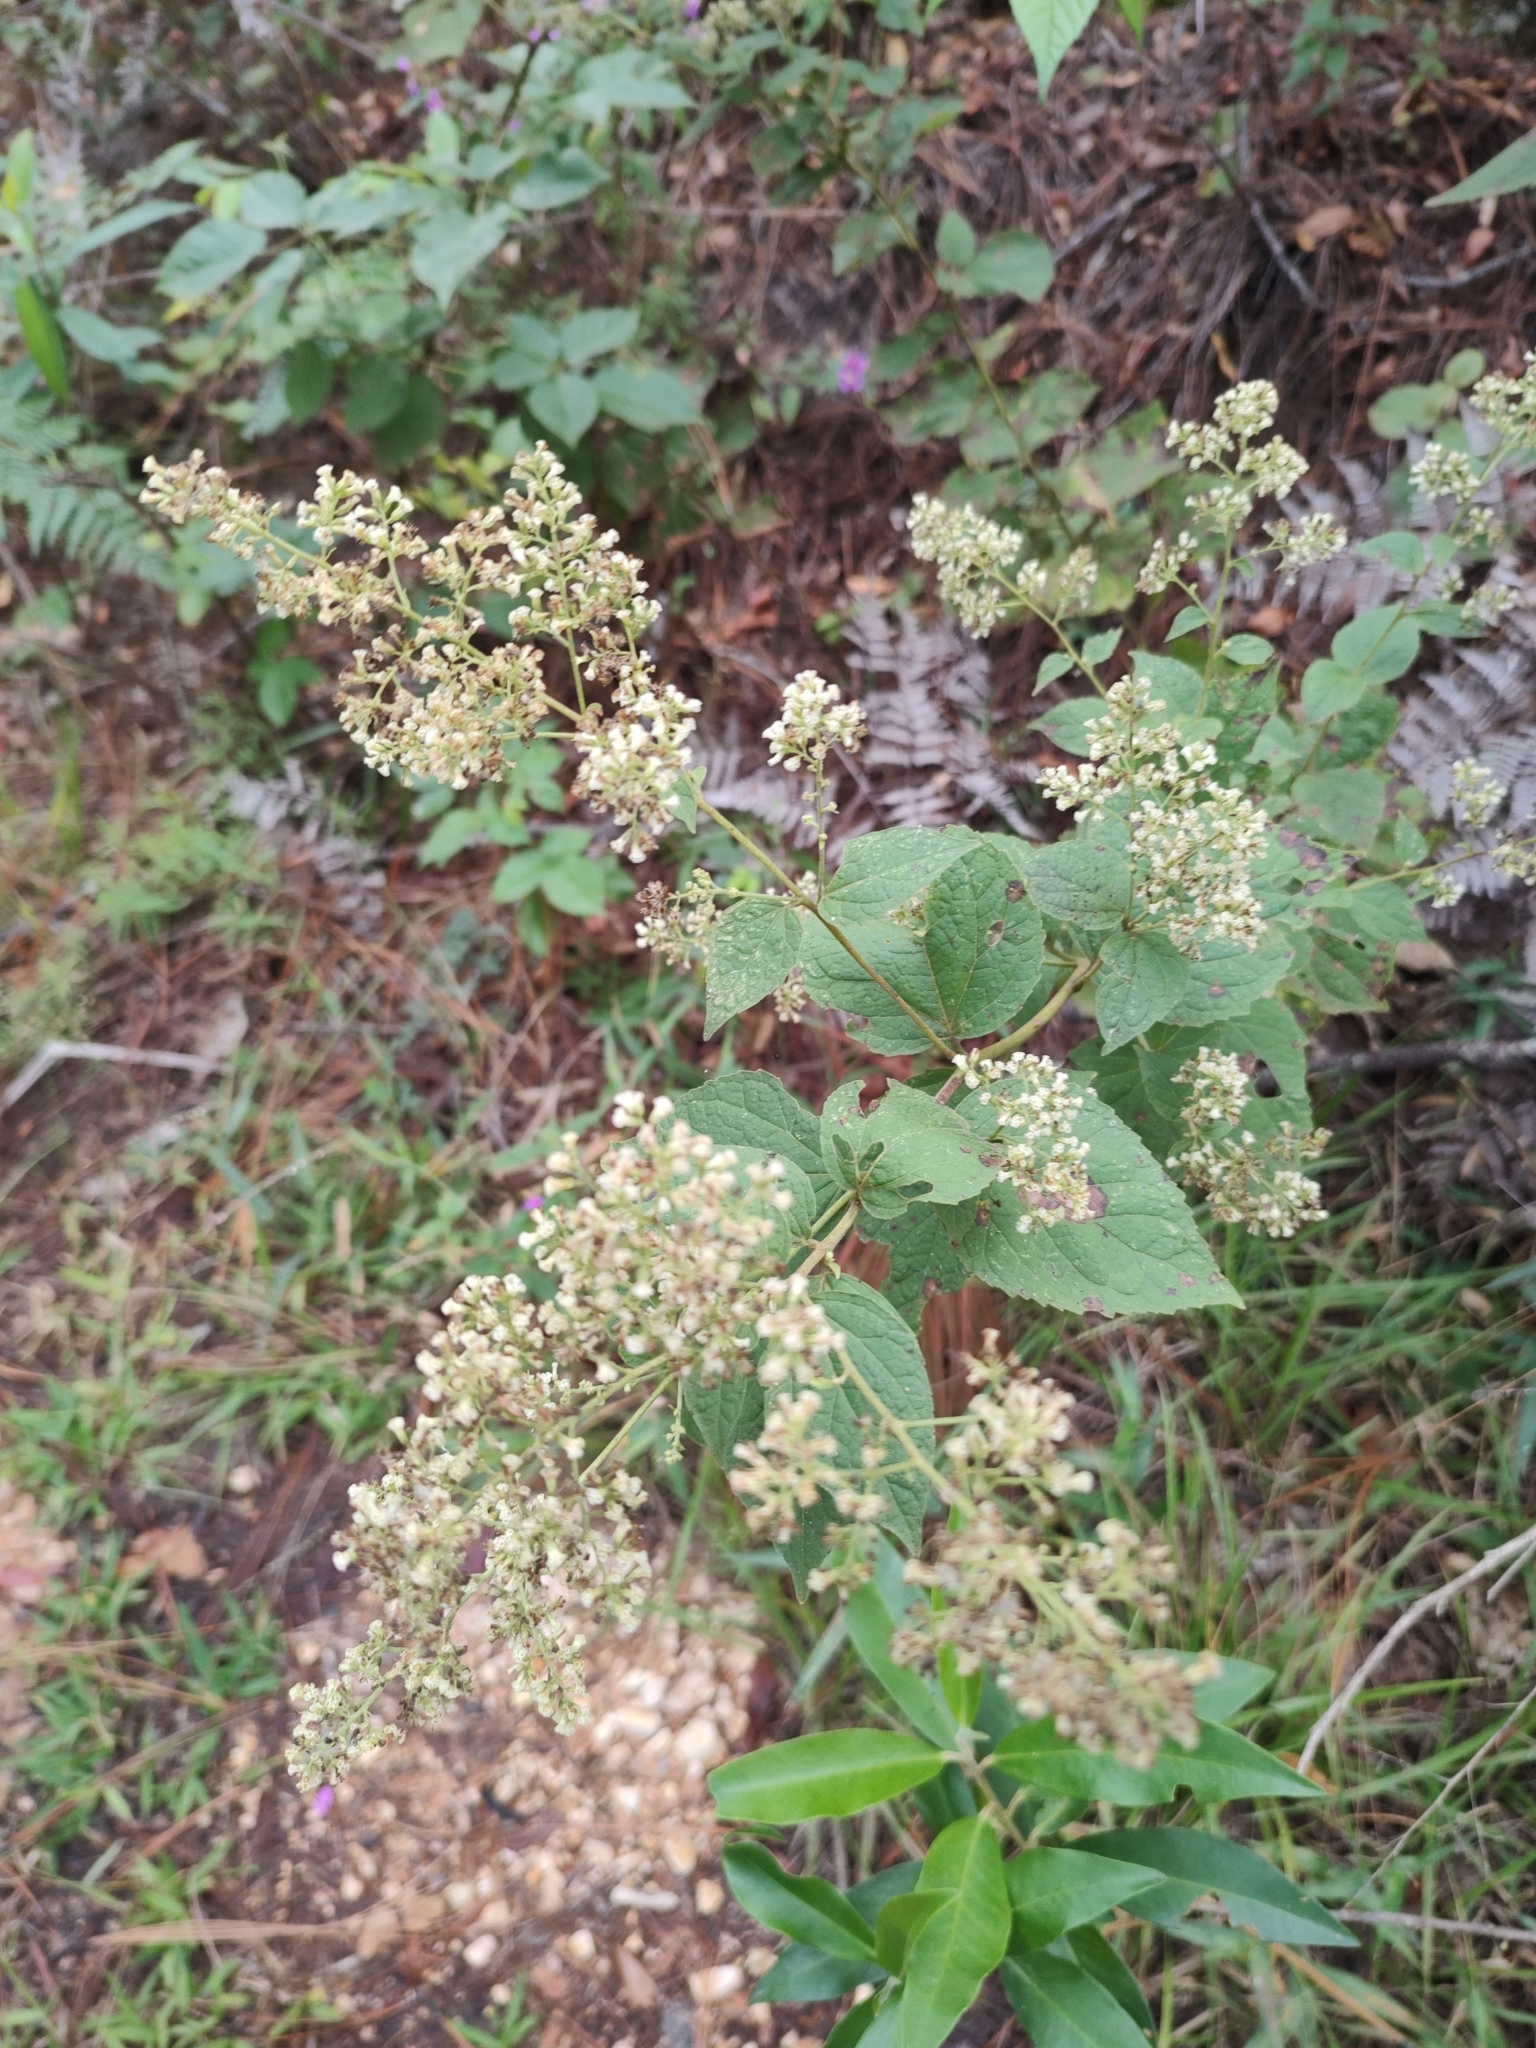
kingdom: Plantae
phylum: Tracheophyta
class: Magnoliopsida
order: Asterales
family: Asteraceae
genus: Decachaeta
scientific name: Decachaeta ovatifolia
